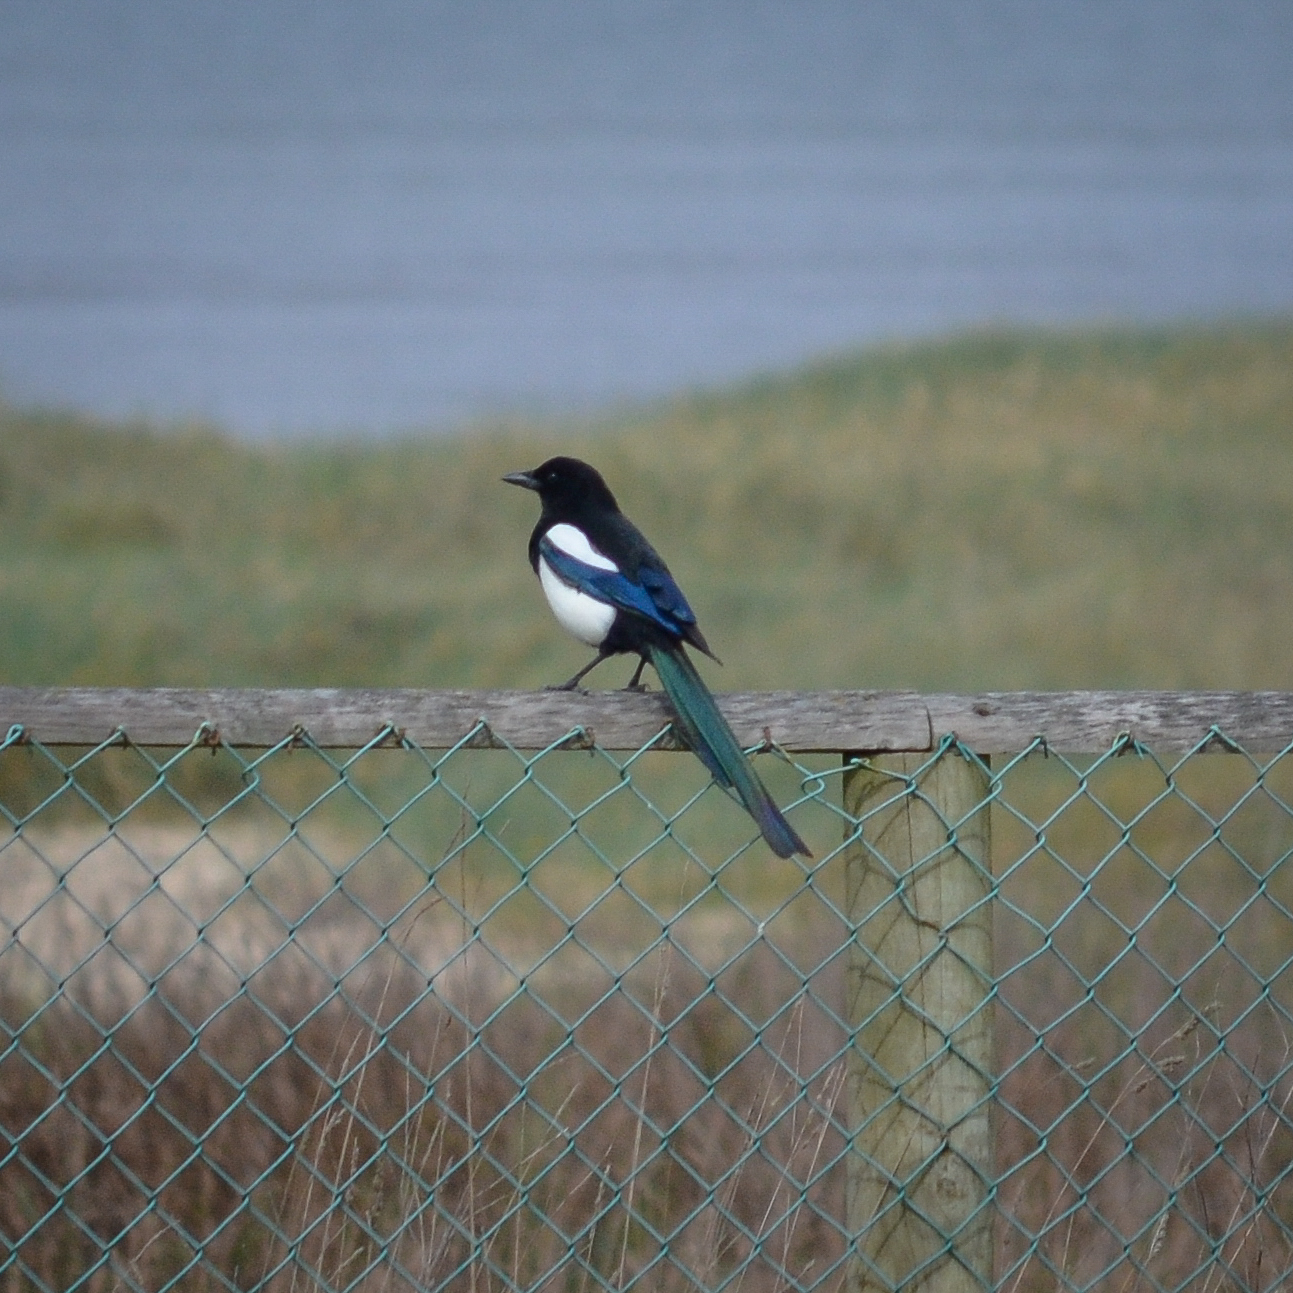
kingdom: Animalia
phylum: Chordata
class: Aves
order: Passeriformes
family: Corvidae
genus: Pica
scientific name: Pica pica
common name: Eurasian magpie
